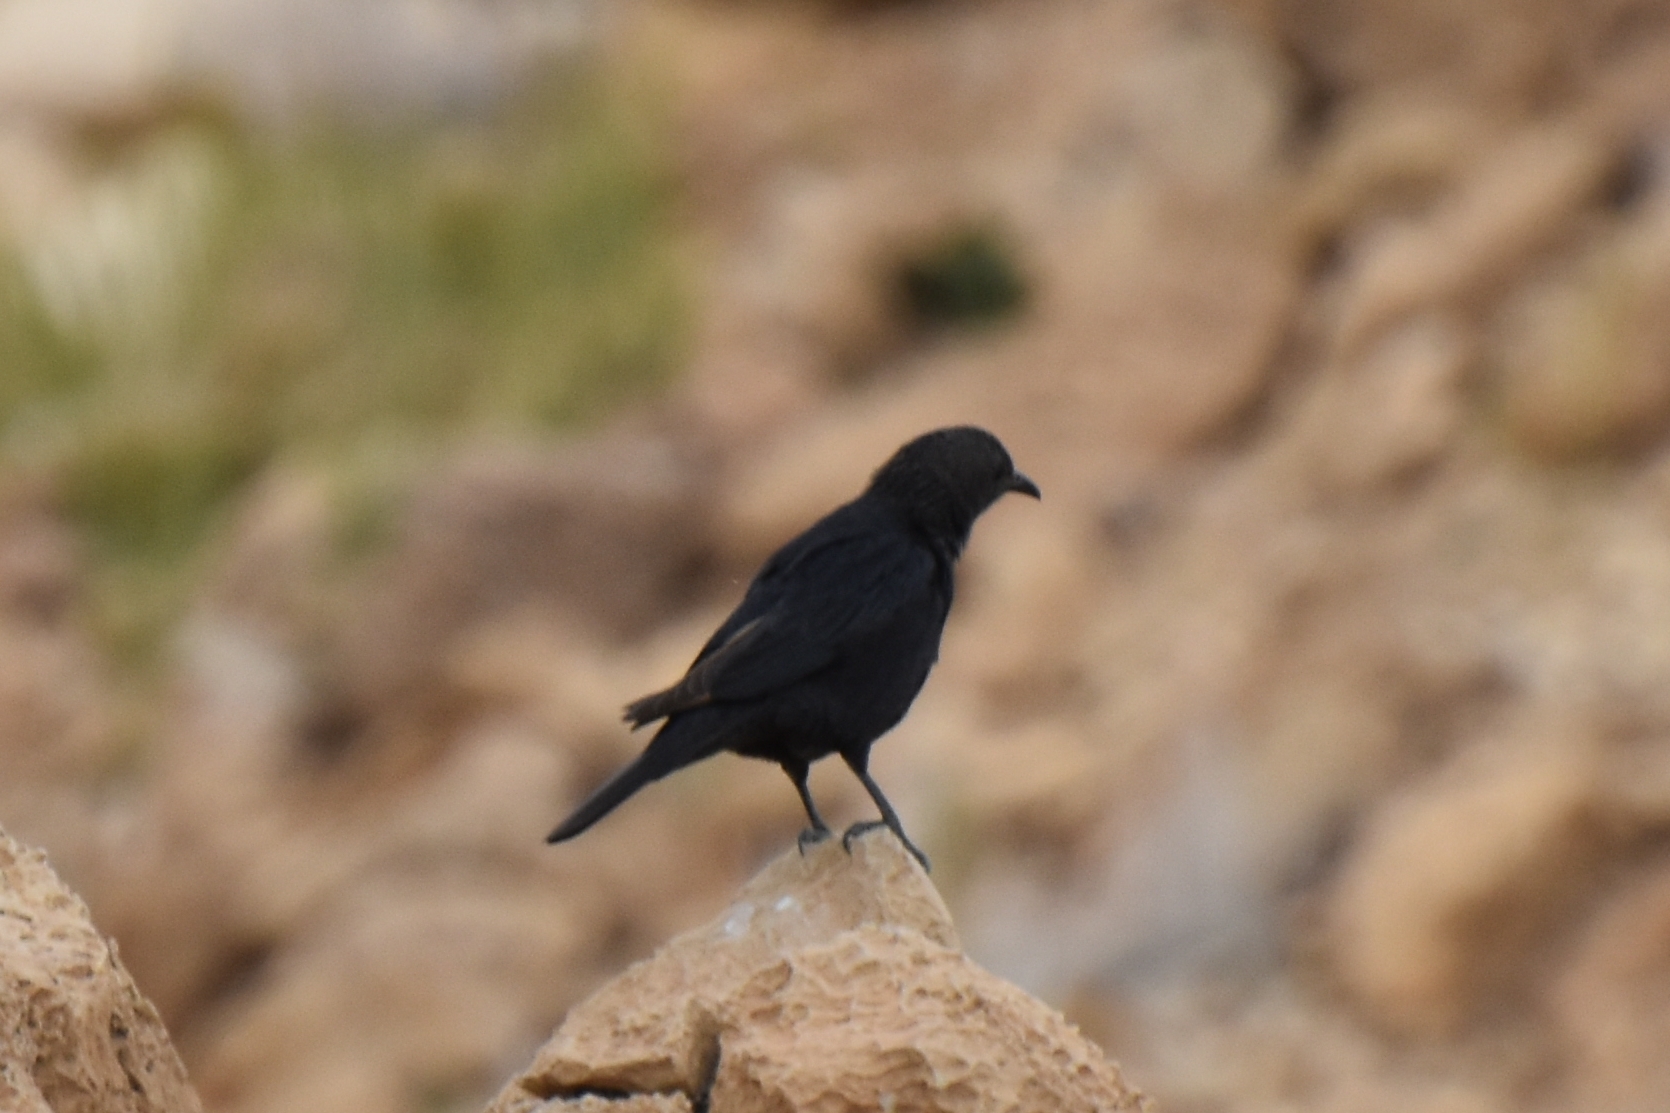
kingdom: Animalia
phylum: Chordata
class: Aves
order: Passeriformes
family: Sturnidae
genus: Onychognathus
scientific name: Onychognathus tristramii
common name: Tristram's starling
